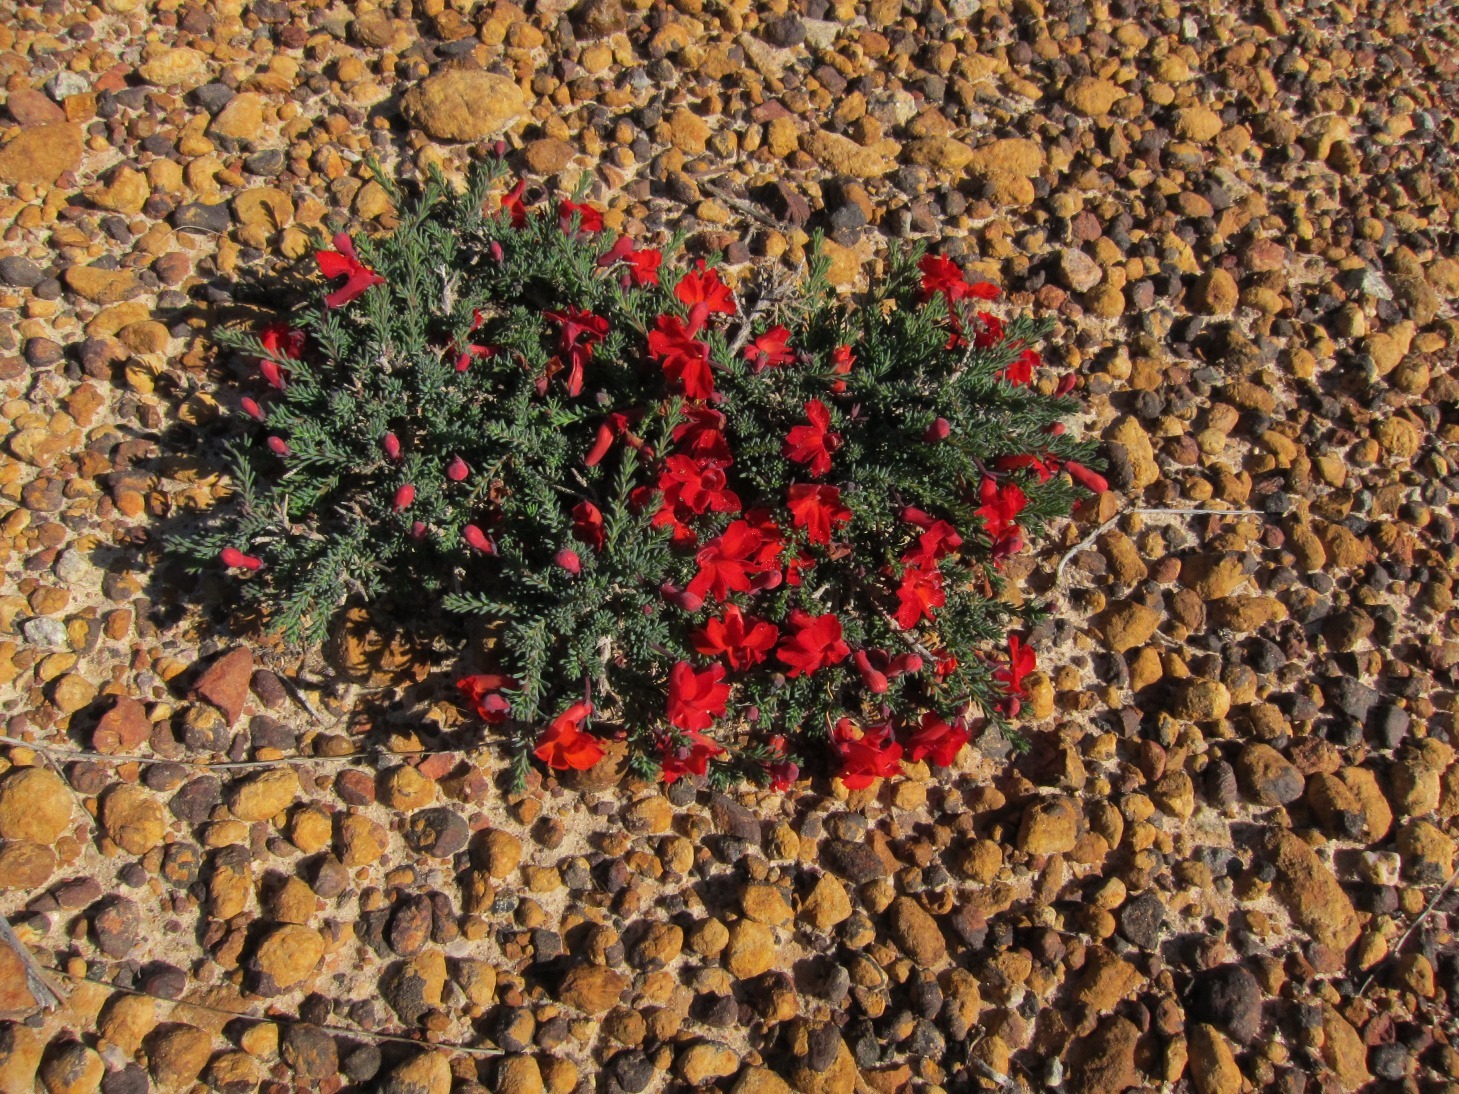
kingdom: Plantae
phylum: Tracheophyta
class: Magnoliopsida
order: Asterales
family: Goodeniaceae
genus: Lechenaultia
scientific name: Lechenaultia formosa
